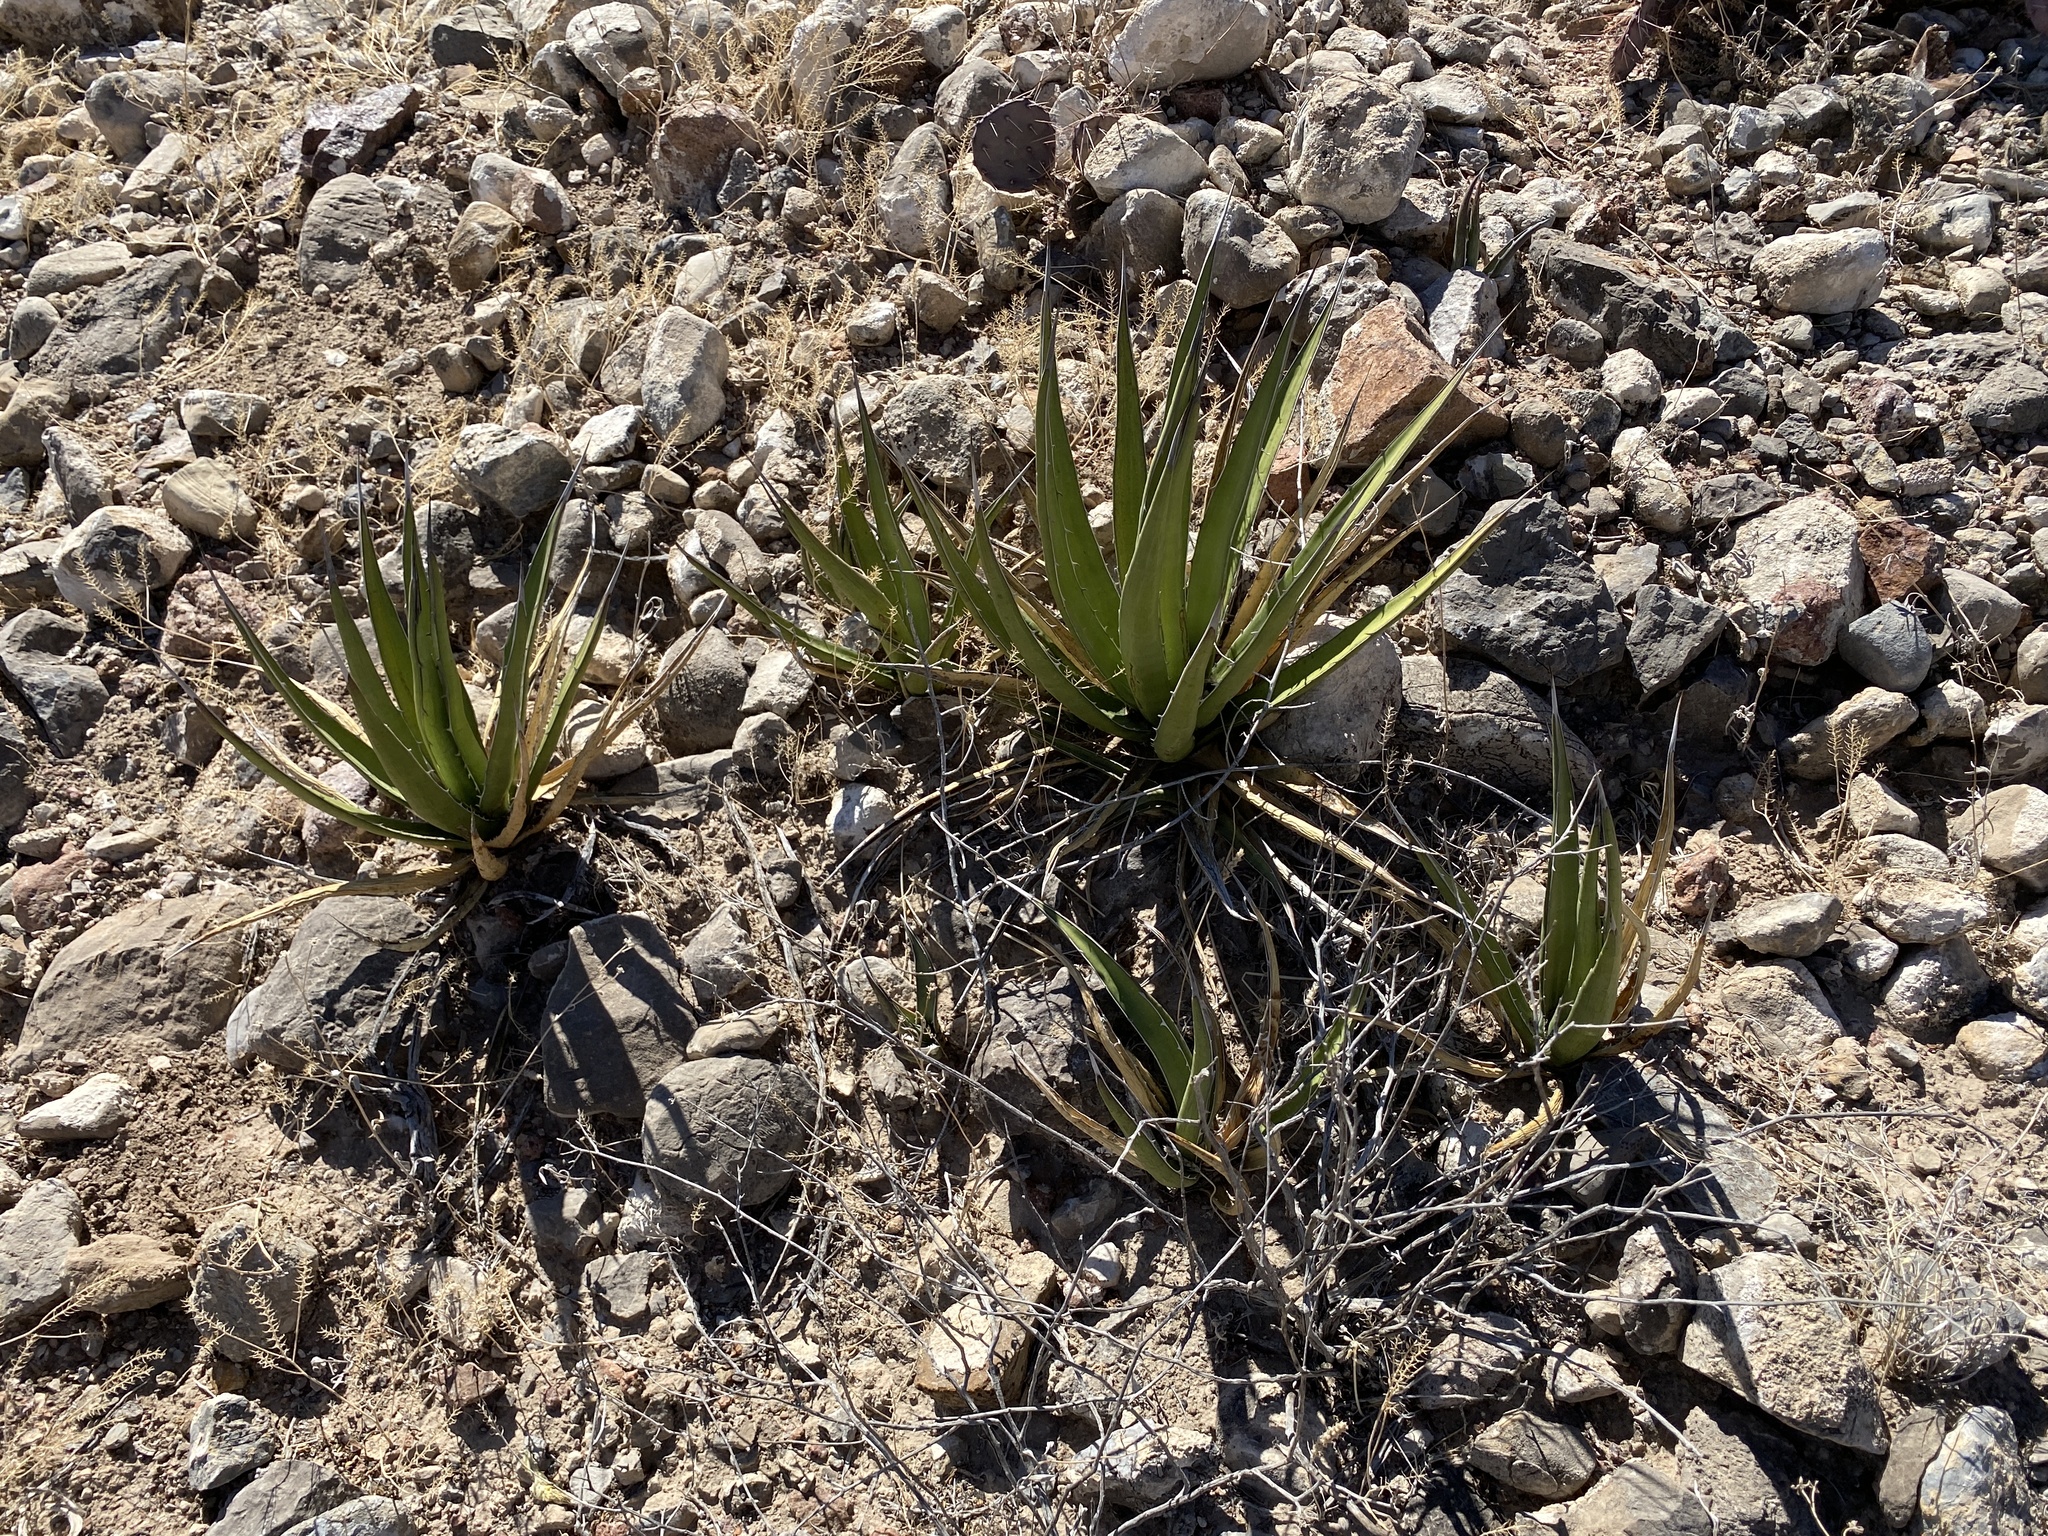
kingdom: Plantae
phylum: Tracheophyta
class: Liliopsida
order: Asparagales
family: Asparagaceae
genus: Agave
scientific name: Agave lechuguilla
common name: Lecheguilla agave
